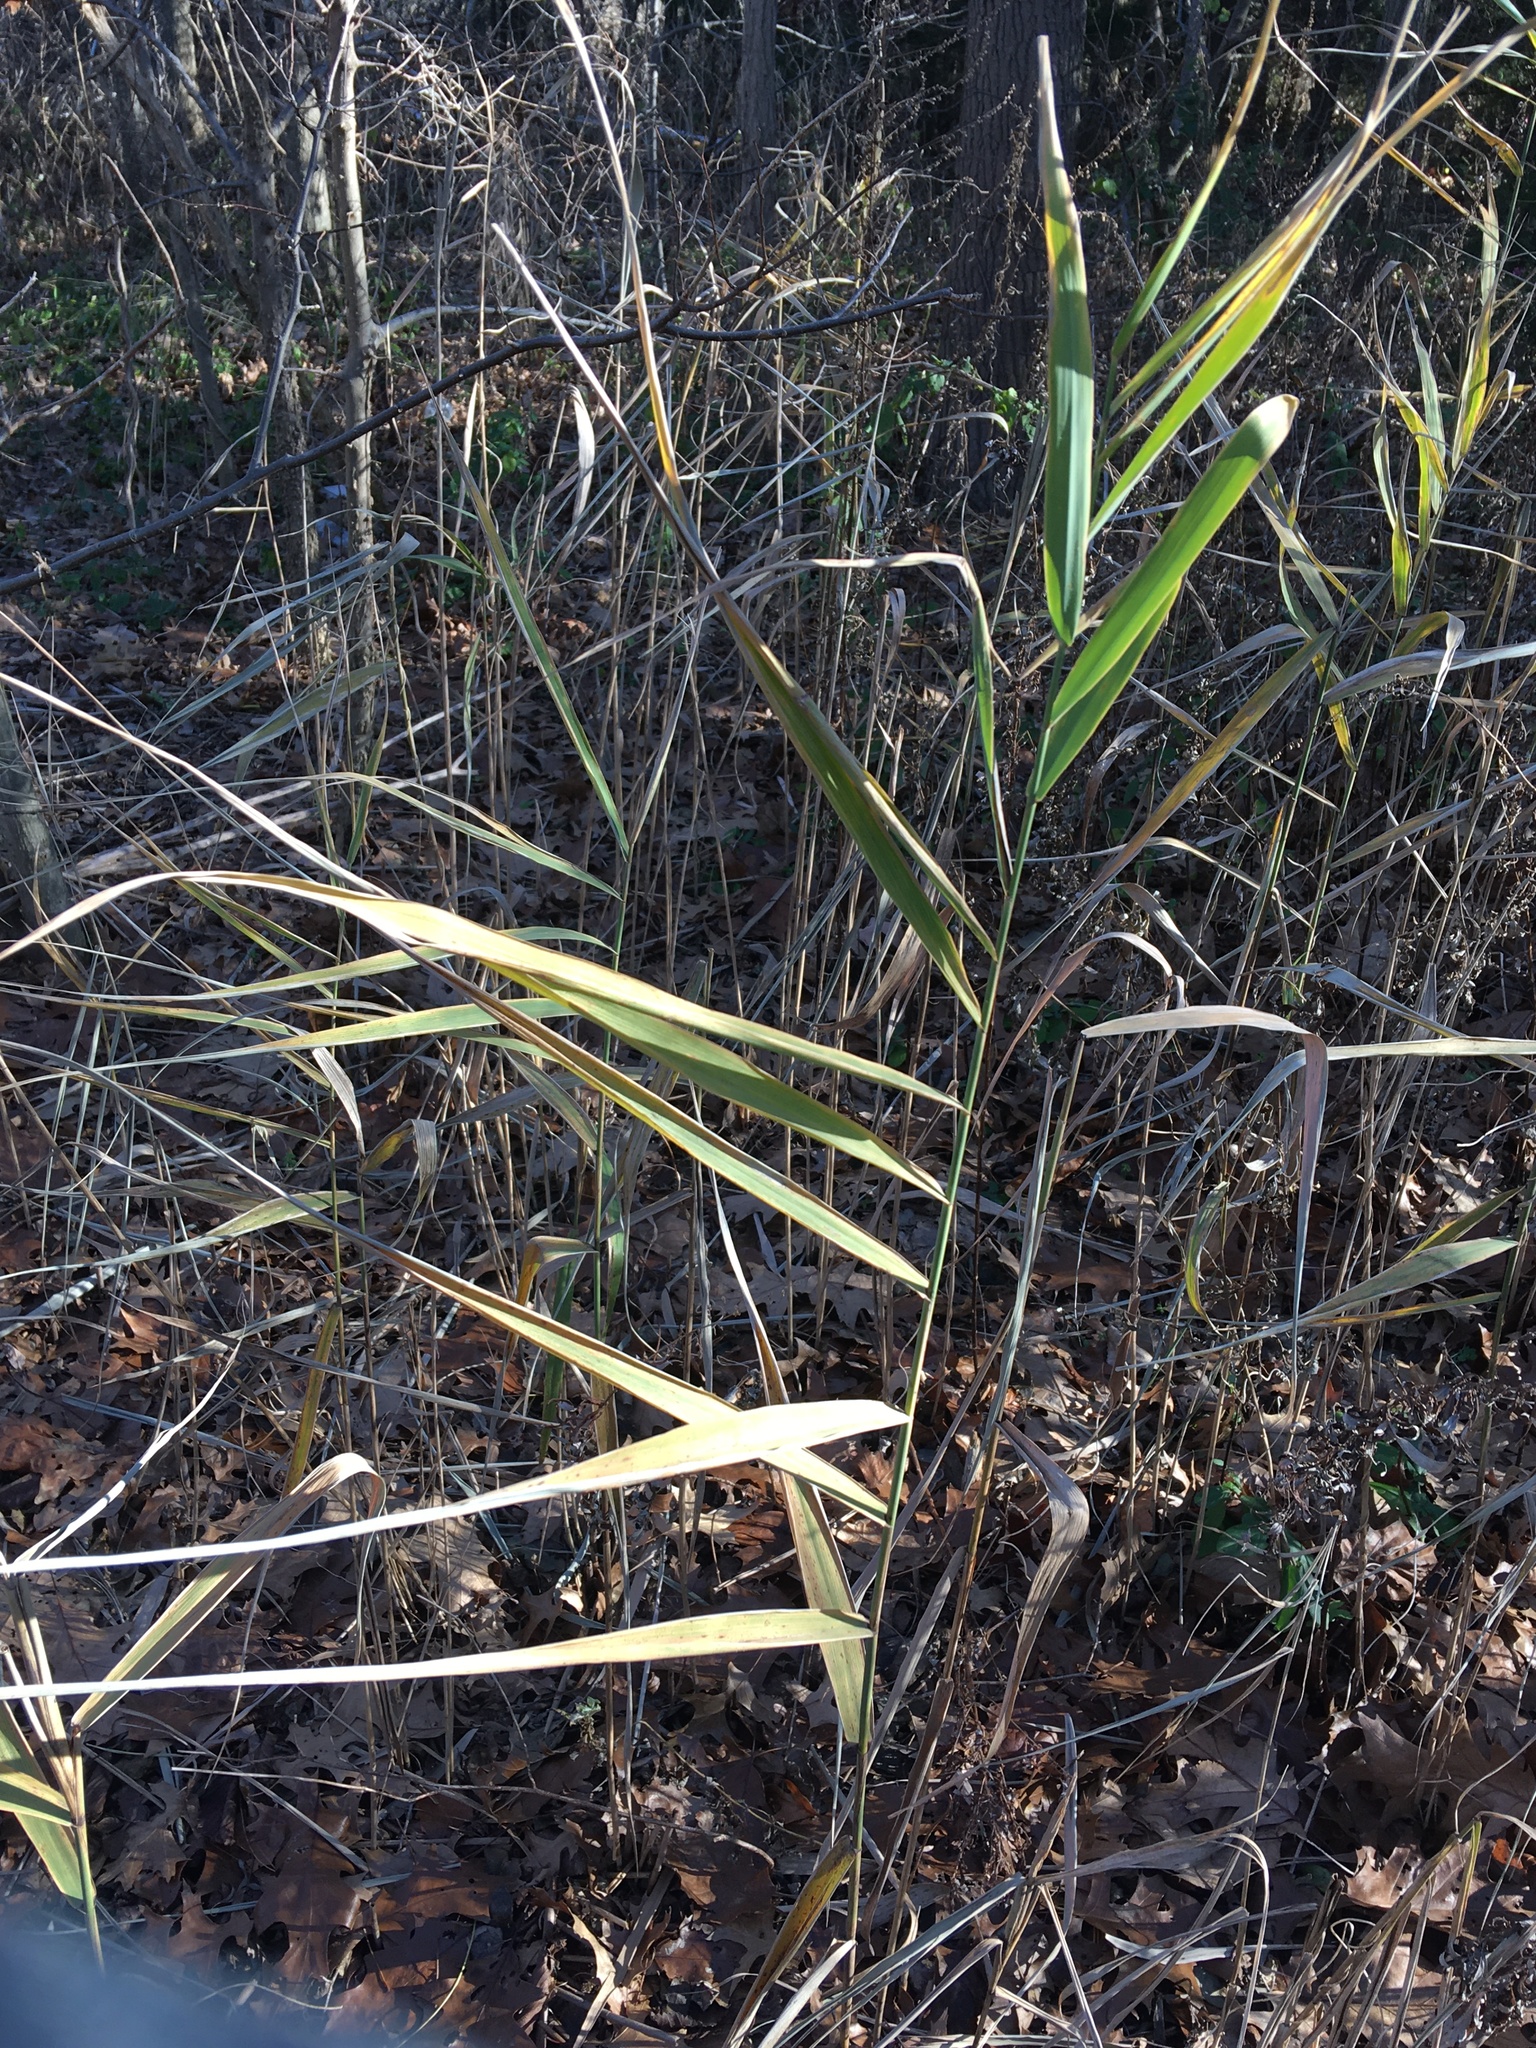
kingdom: Plantae
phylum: Tracheophyta
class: Liliopsida
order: Poales
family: Poaceae
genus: Phragmites
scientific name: Phragmites australis
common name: Common reed
